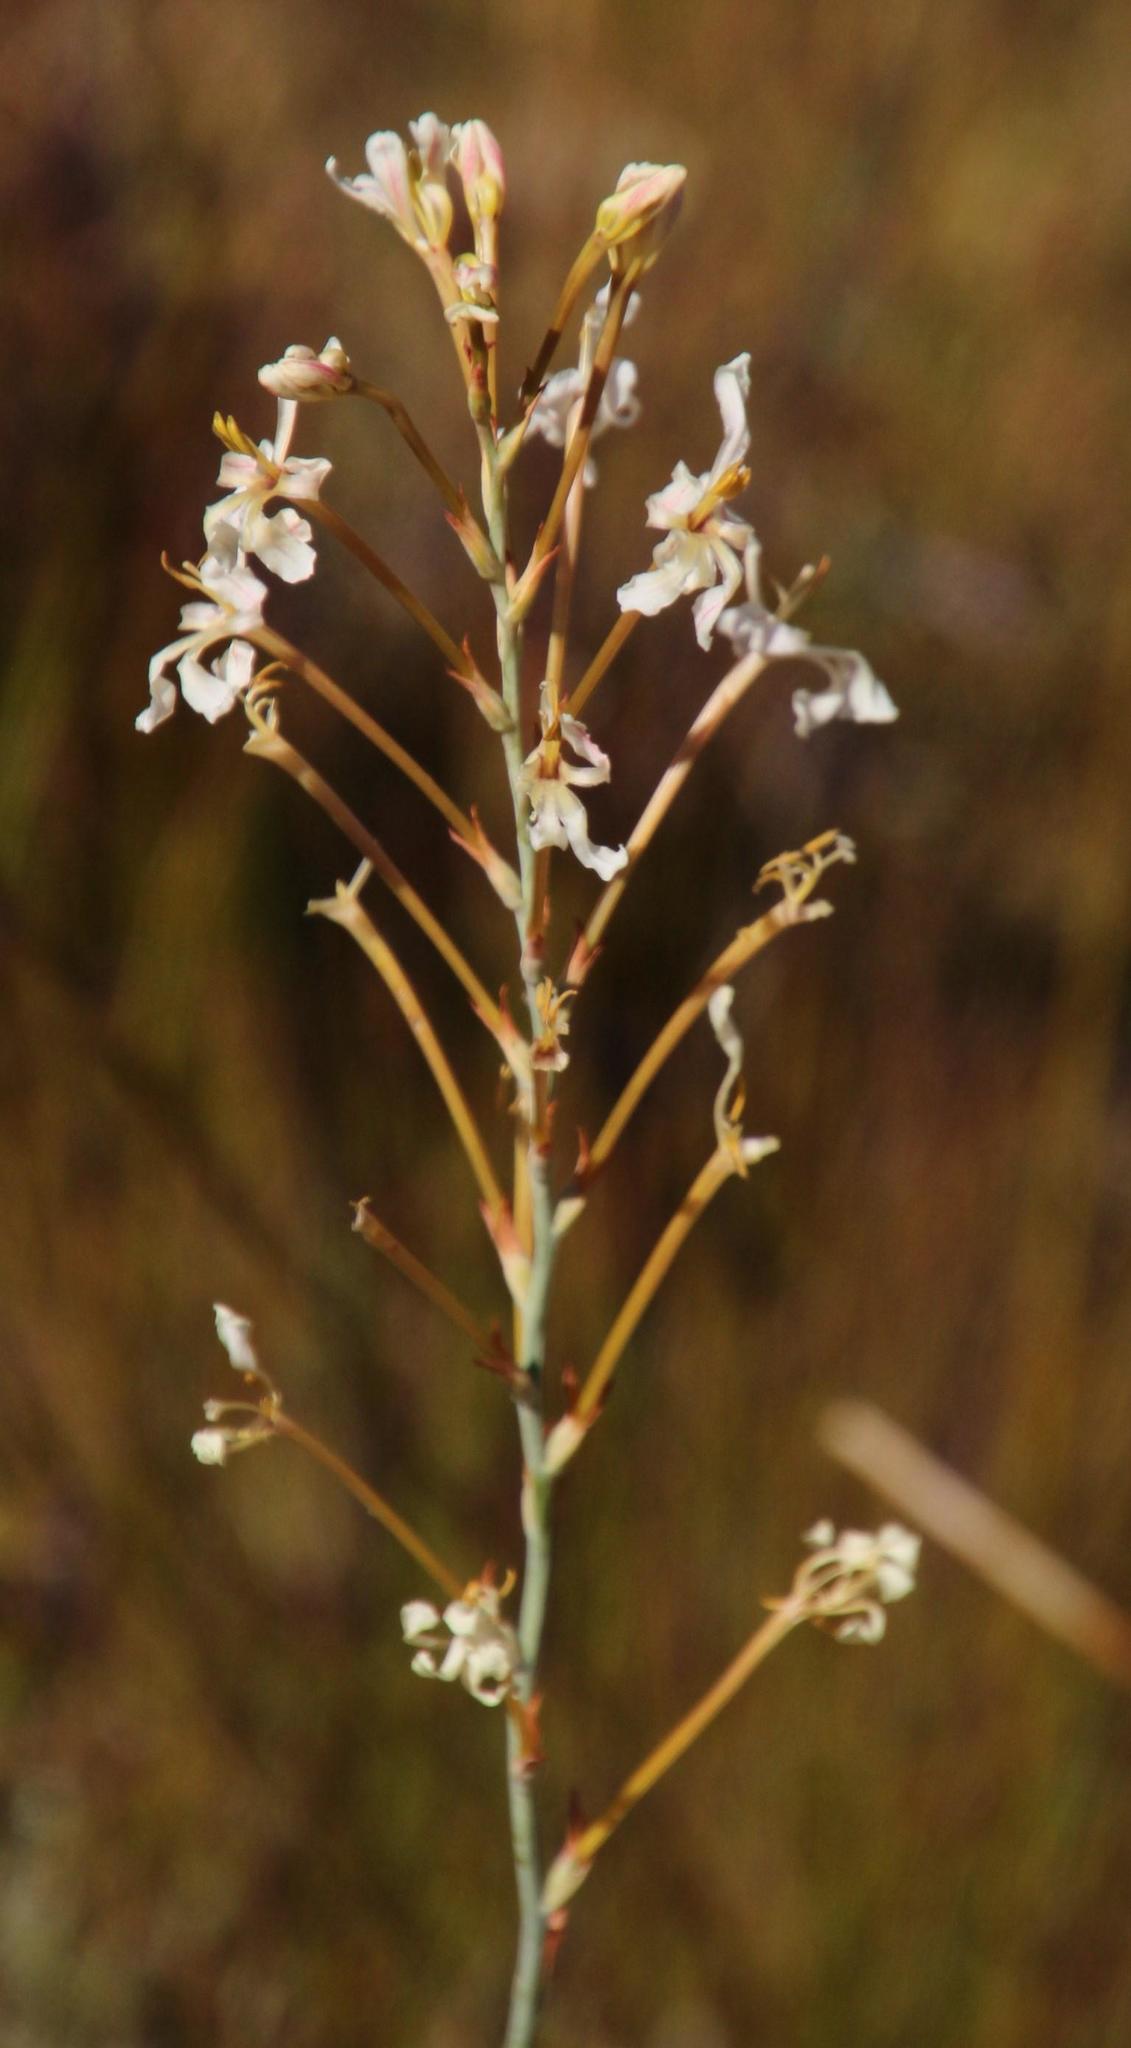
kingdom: Plantae
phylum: Tracheophyta
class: Liliopsida
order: Asparagales
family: Iridaceae
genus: Tritoniopsis
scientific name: Tritoniopsis nervosa
